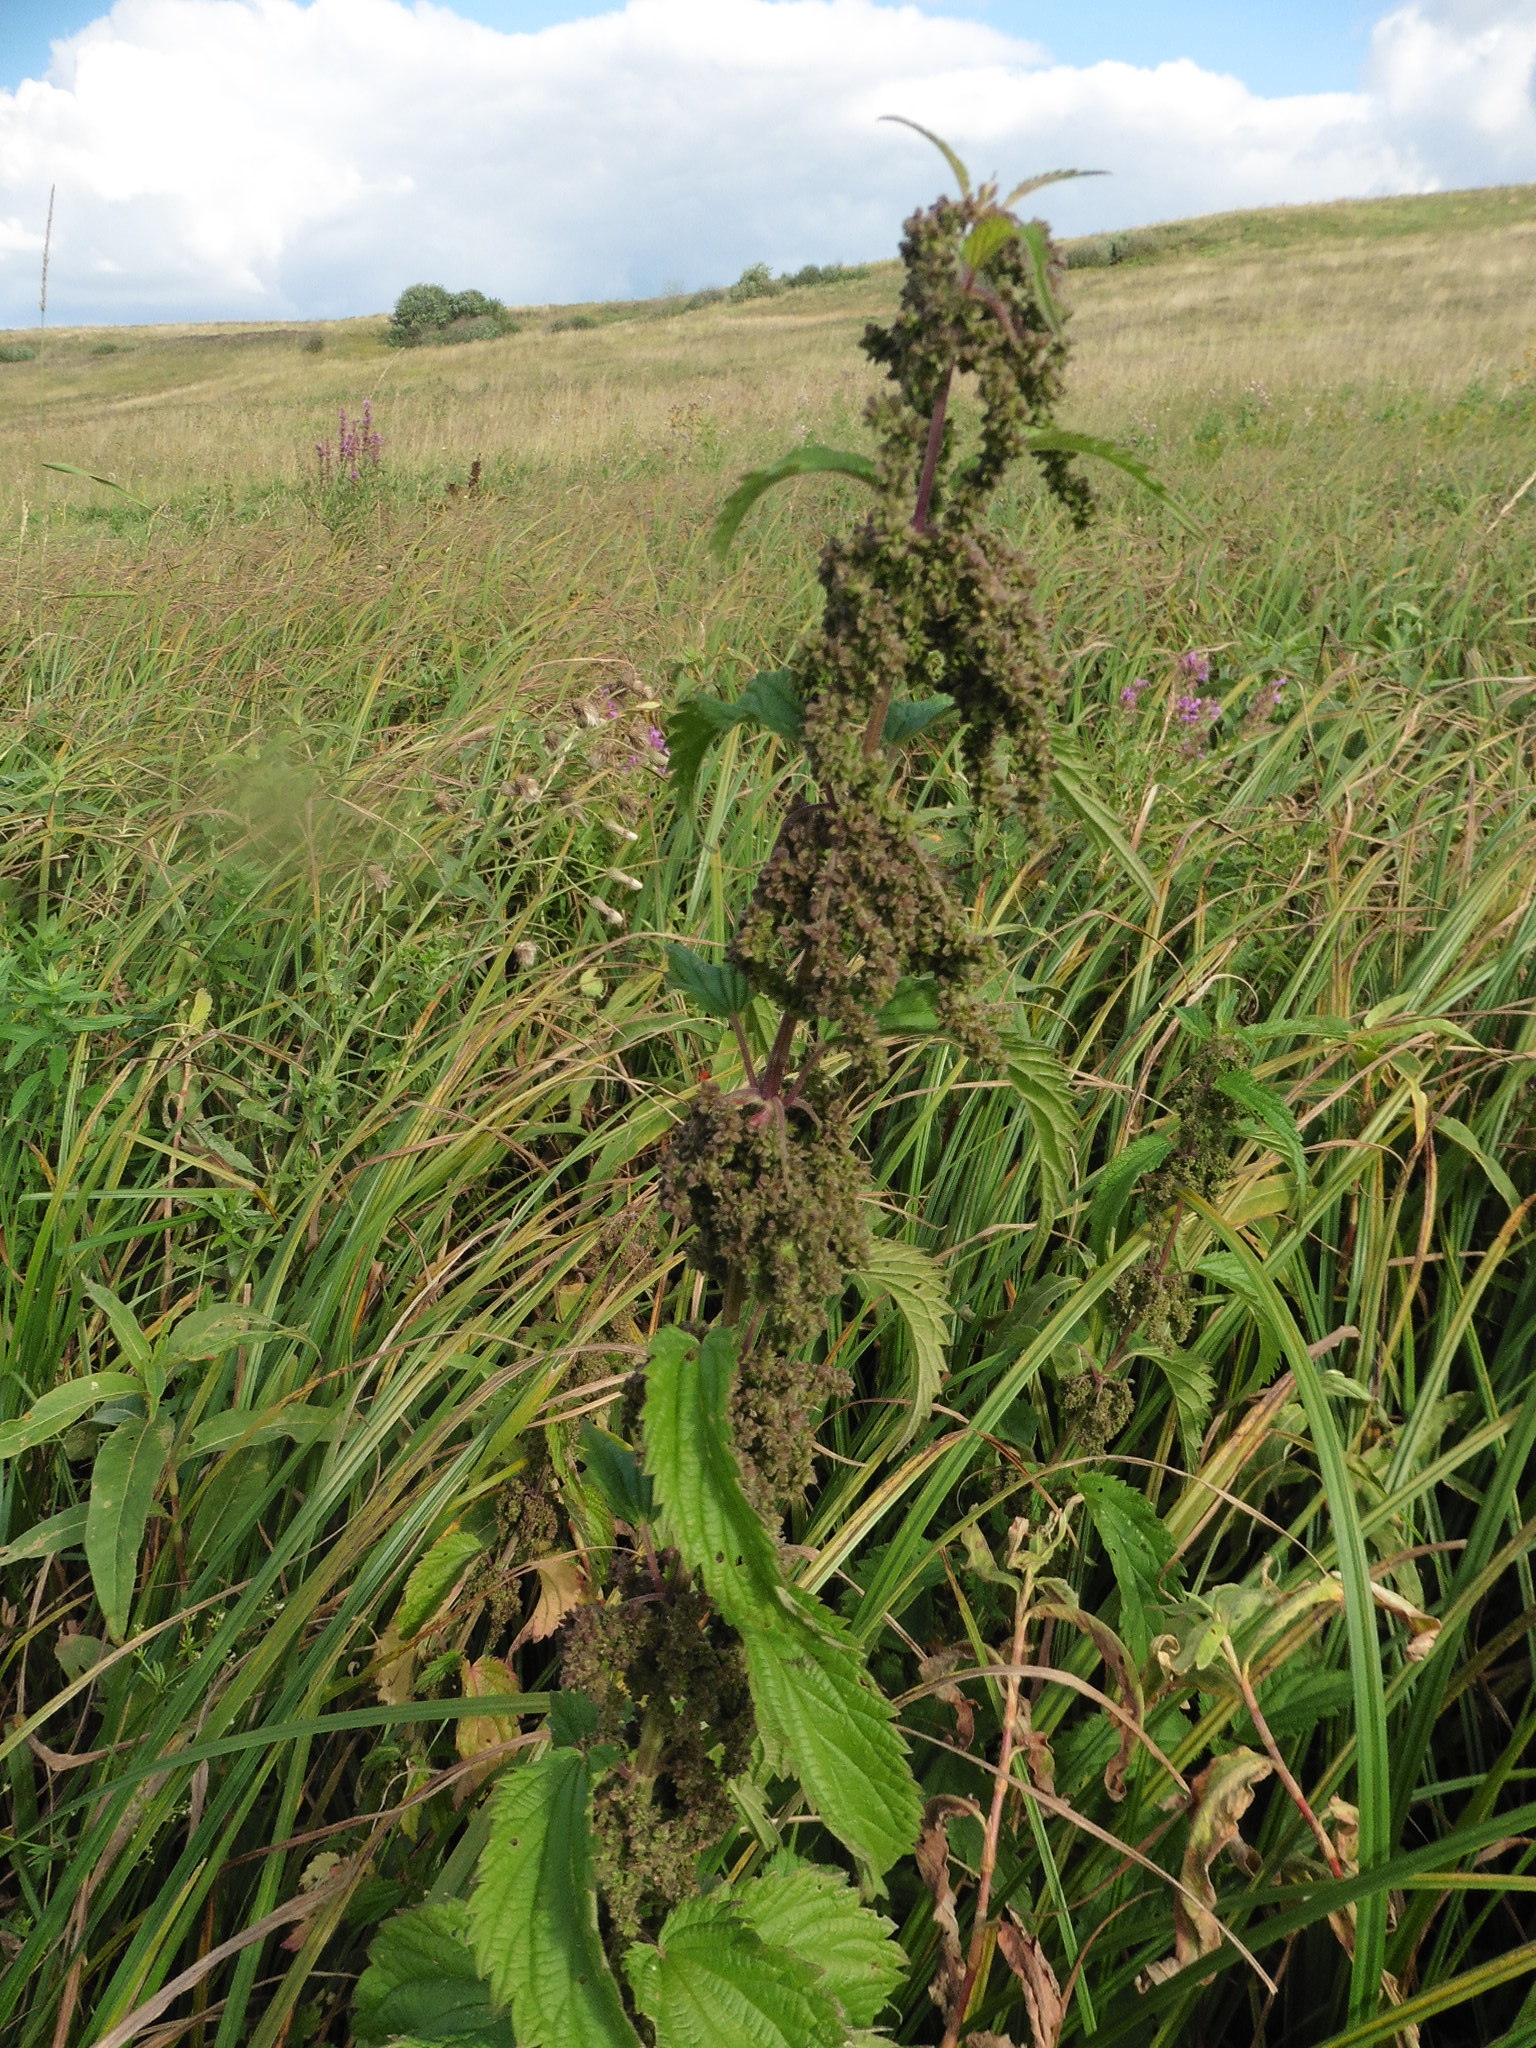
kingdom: Plantae
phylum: Tracheophyta
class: Magnoliopsida
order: Rosales
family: Urticaceae
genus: Urtica
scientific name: Urtica dioica
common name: Common nettle
